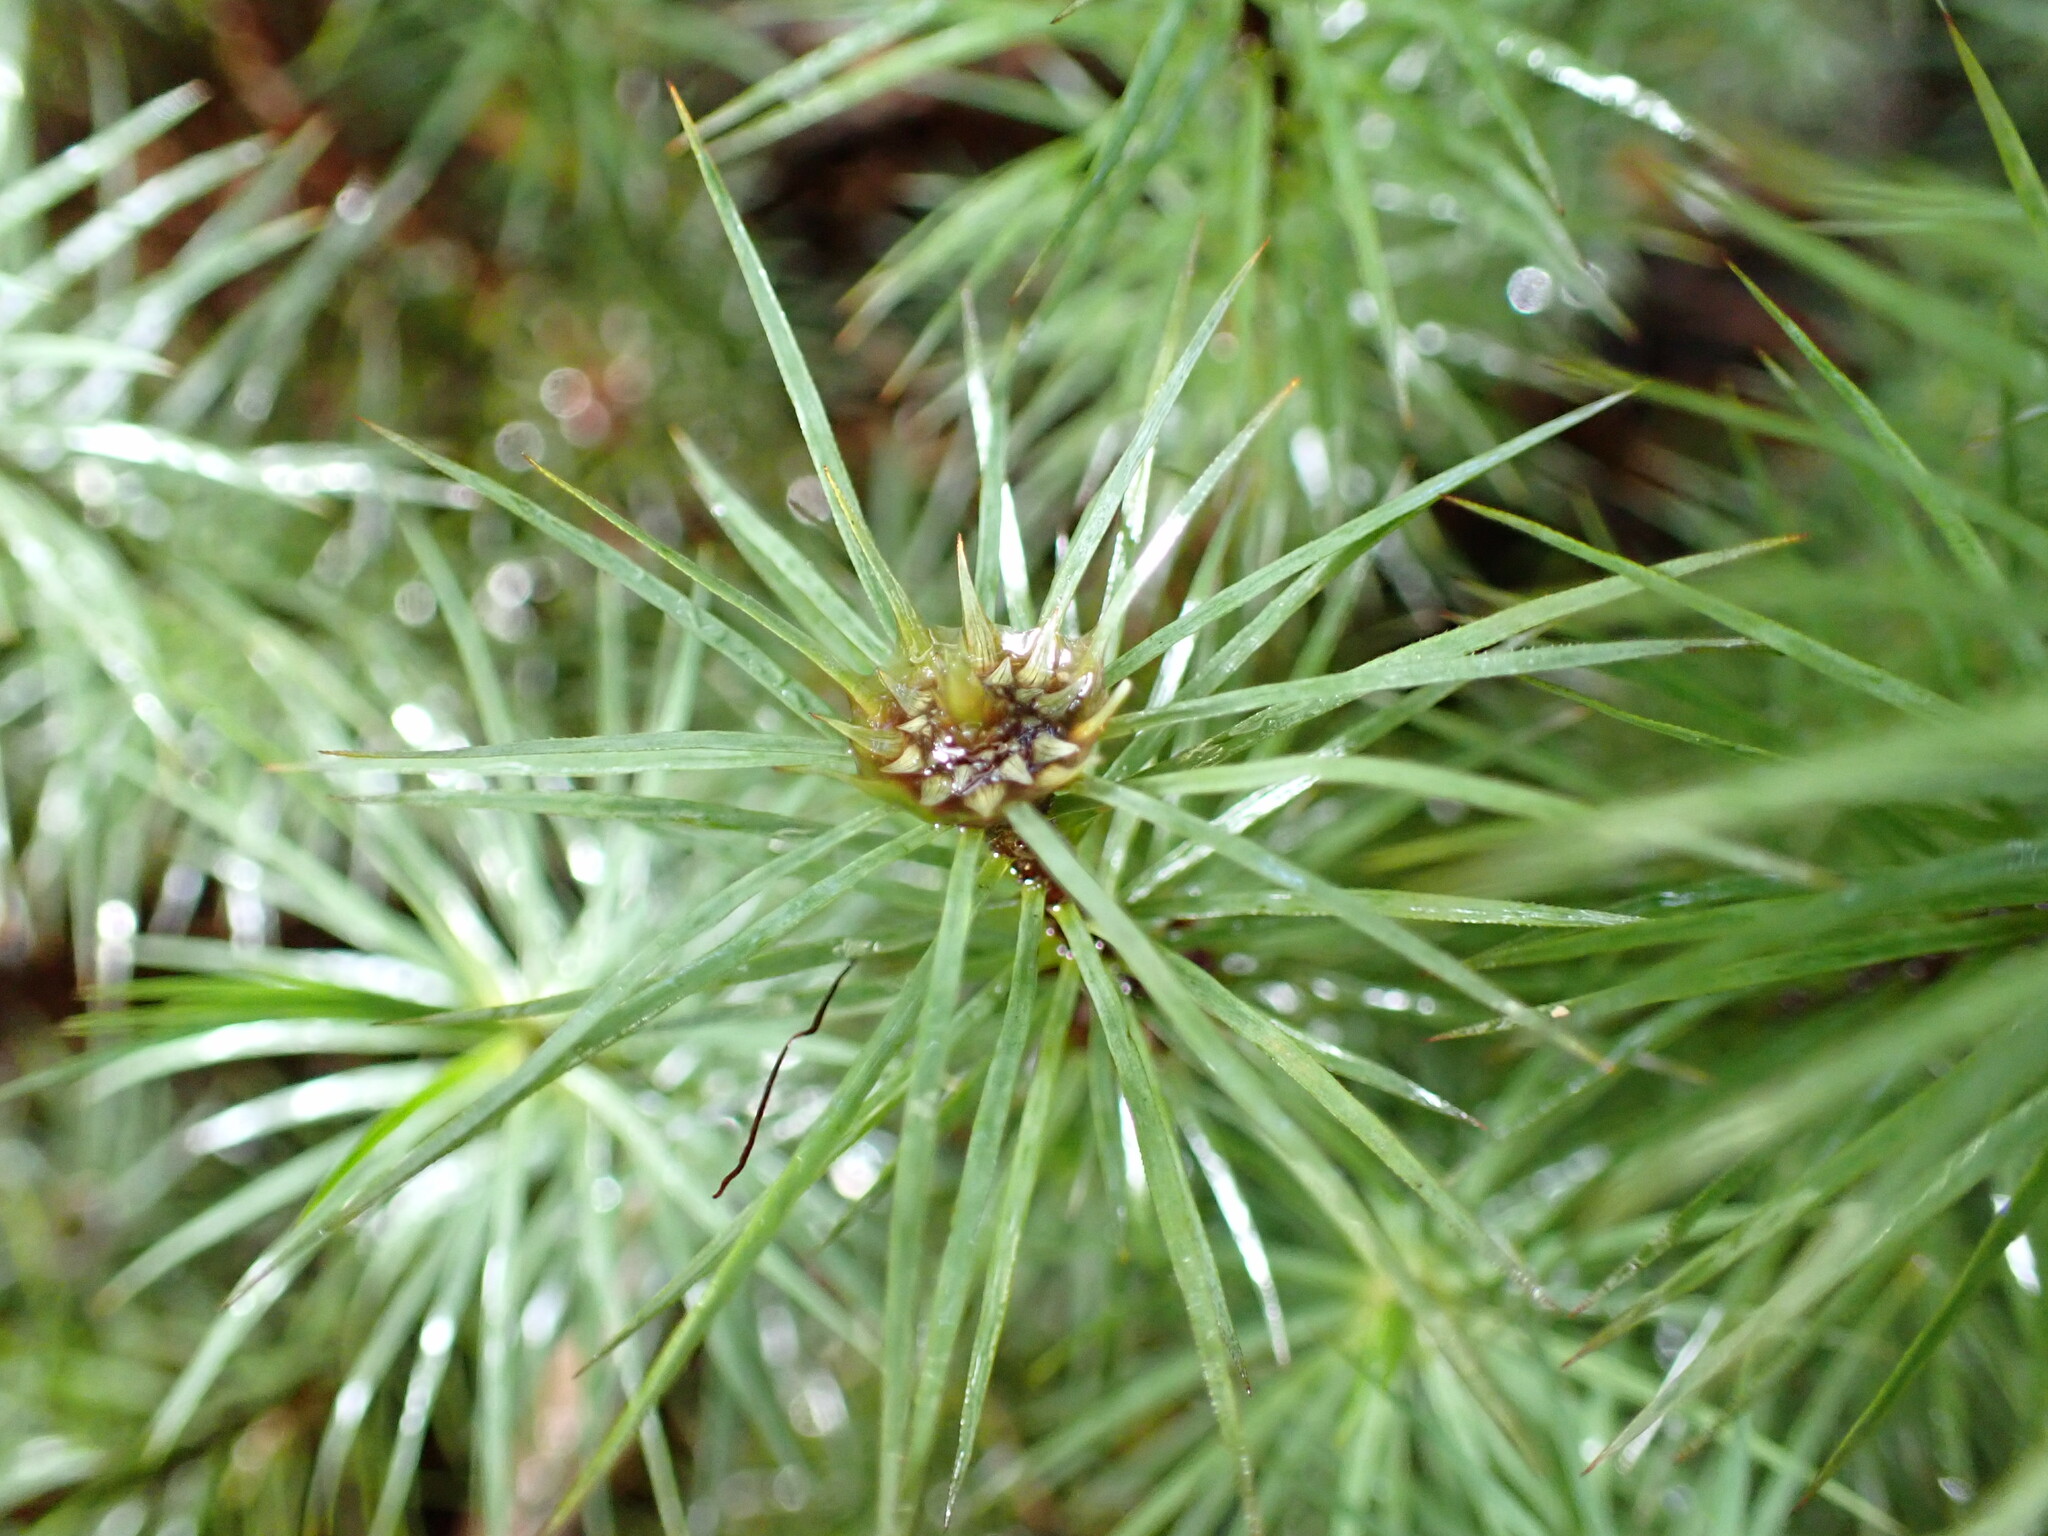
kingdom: Plantae
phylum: Bryophyta
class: Polytrichopsida
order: Polytrichales
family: Polytrichaceae
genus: Dawsonia
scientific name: Dawsonia superba
